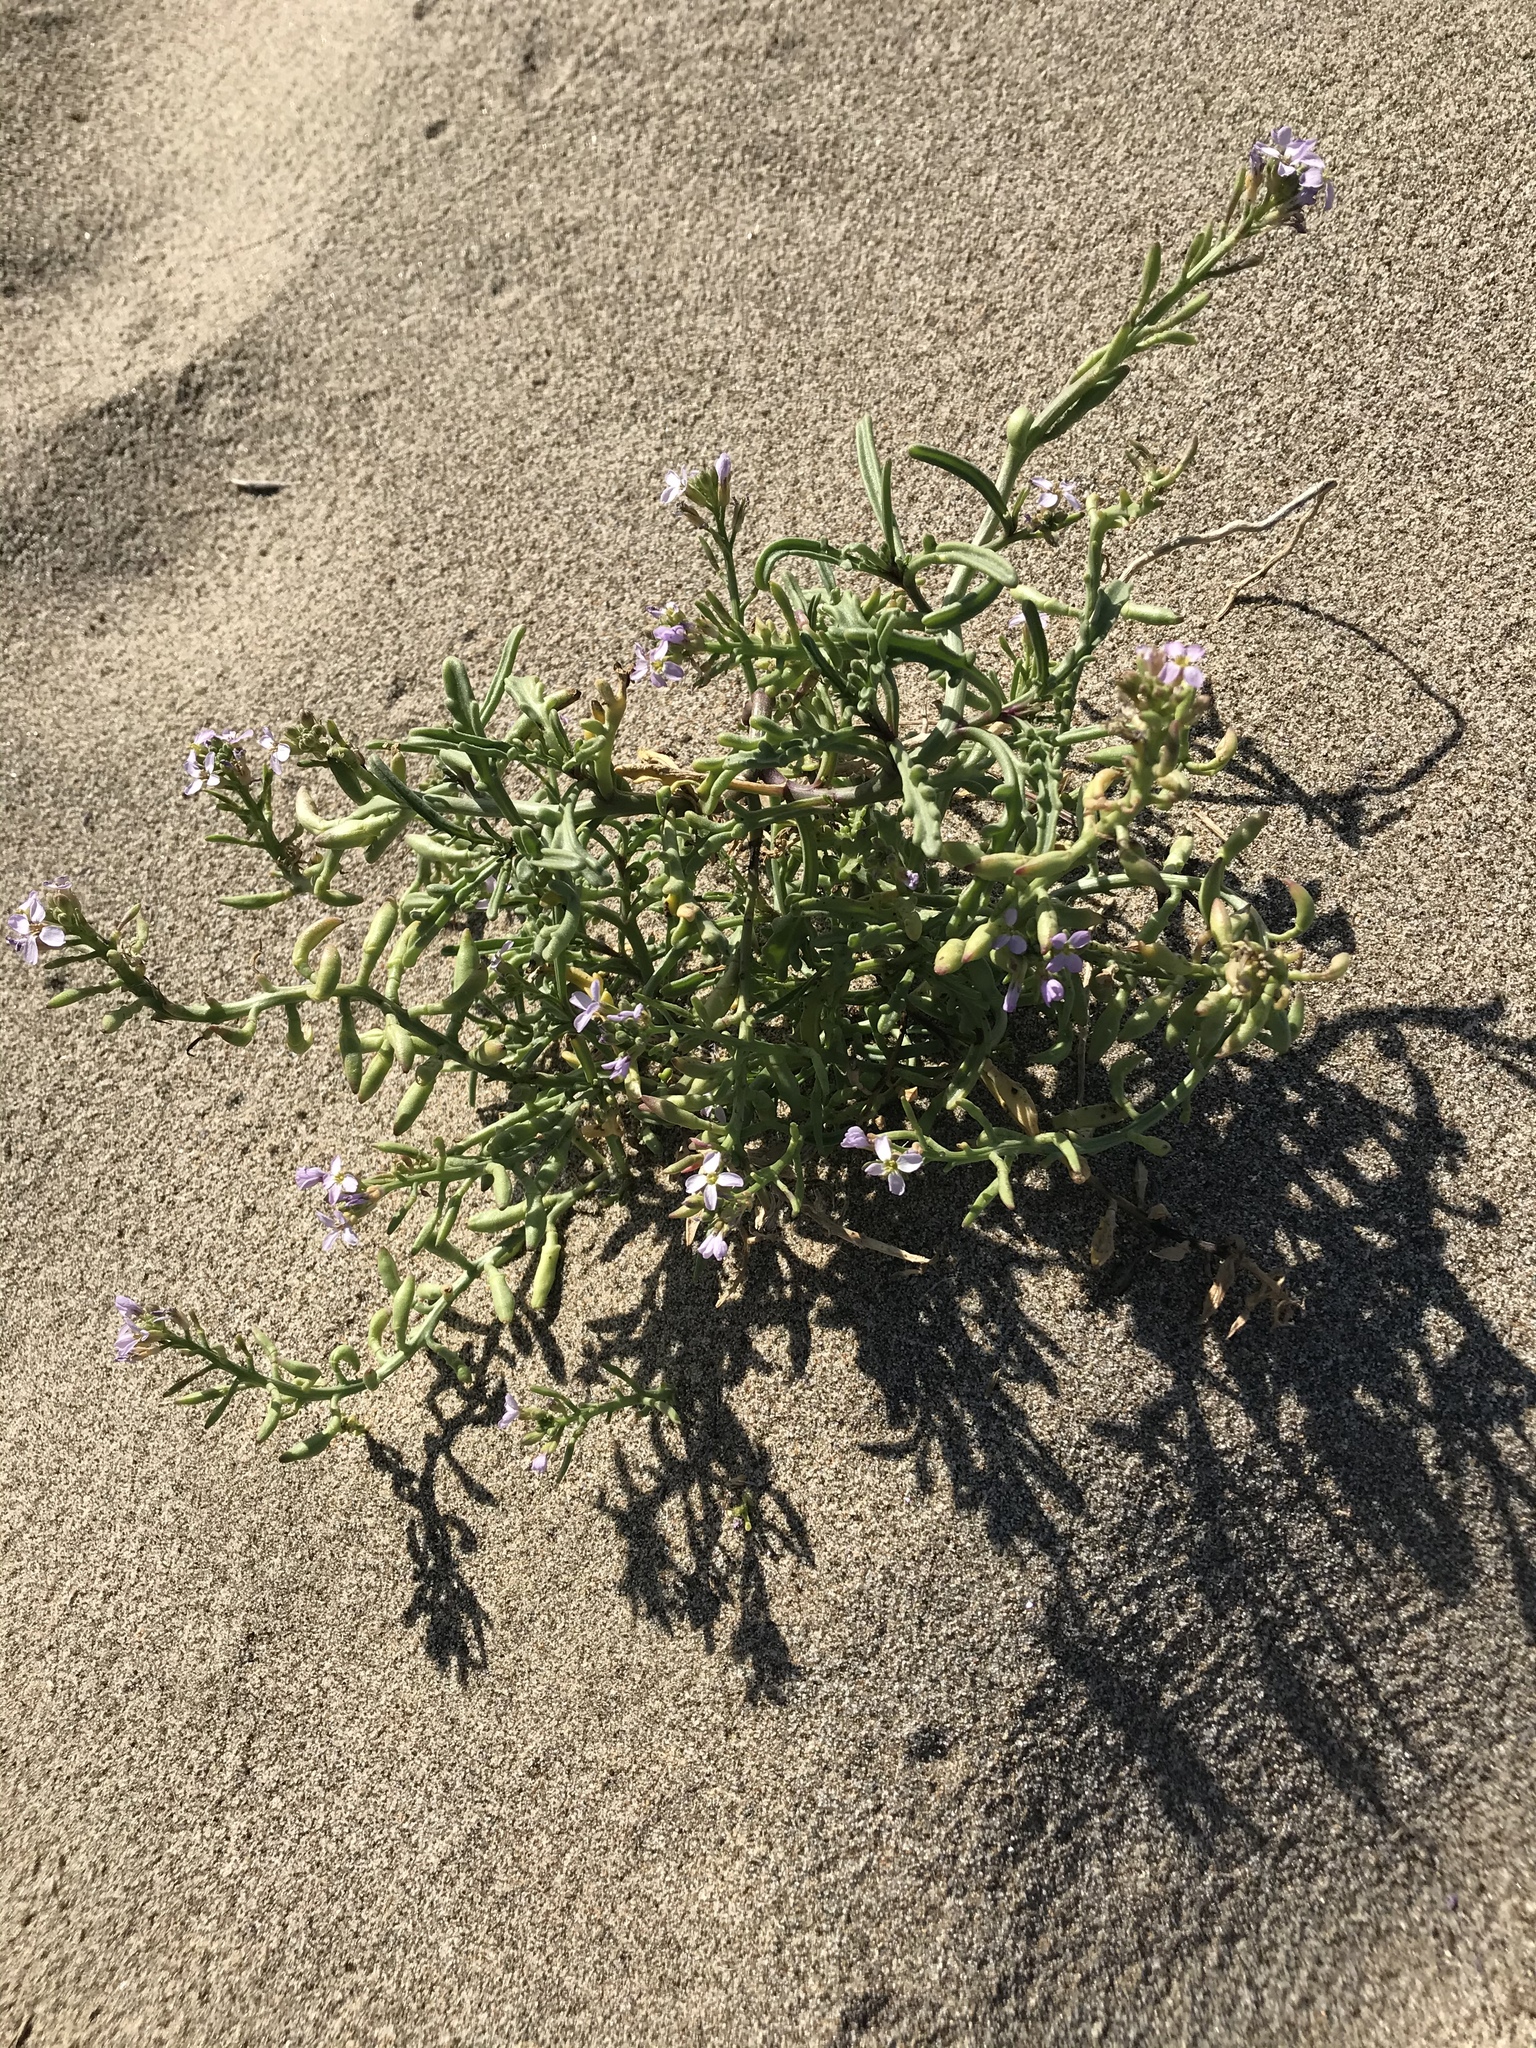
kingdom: Plantae
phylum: Tracheophyta
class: Magnoliopsida
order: Brassicales
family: Brassicaceae
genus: Cakile
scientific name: Cakile maritima
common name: Sea rocket
